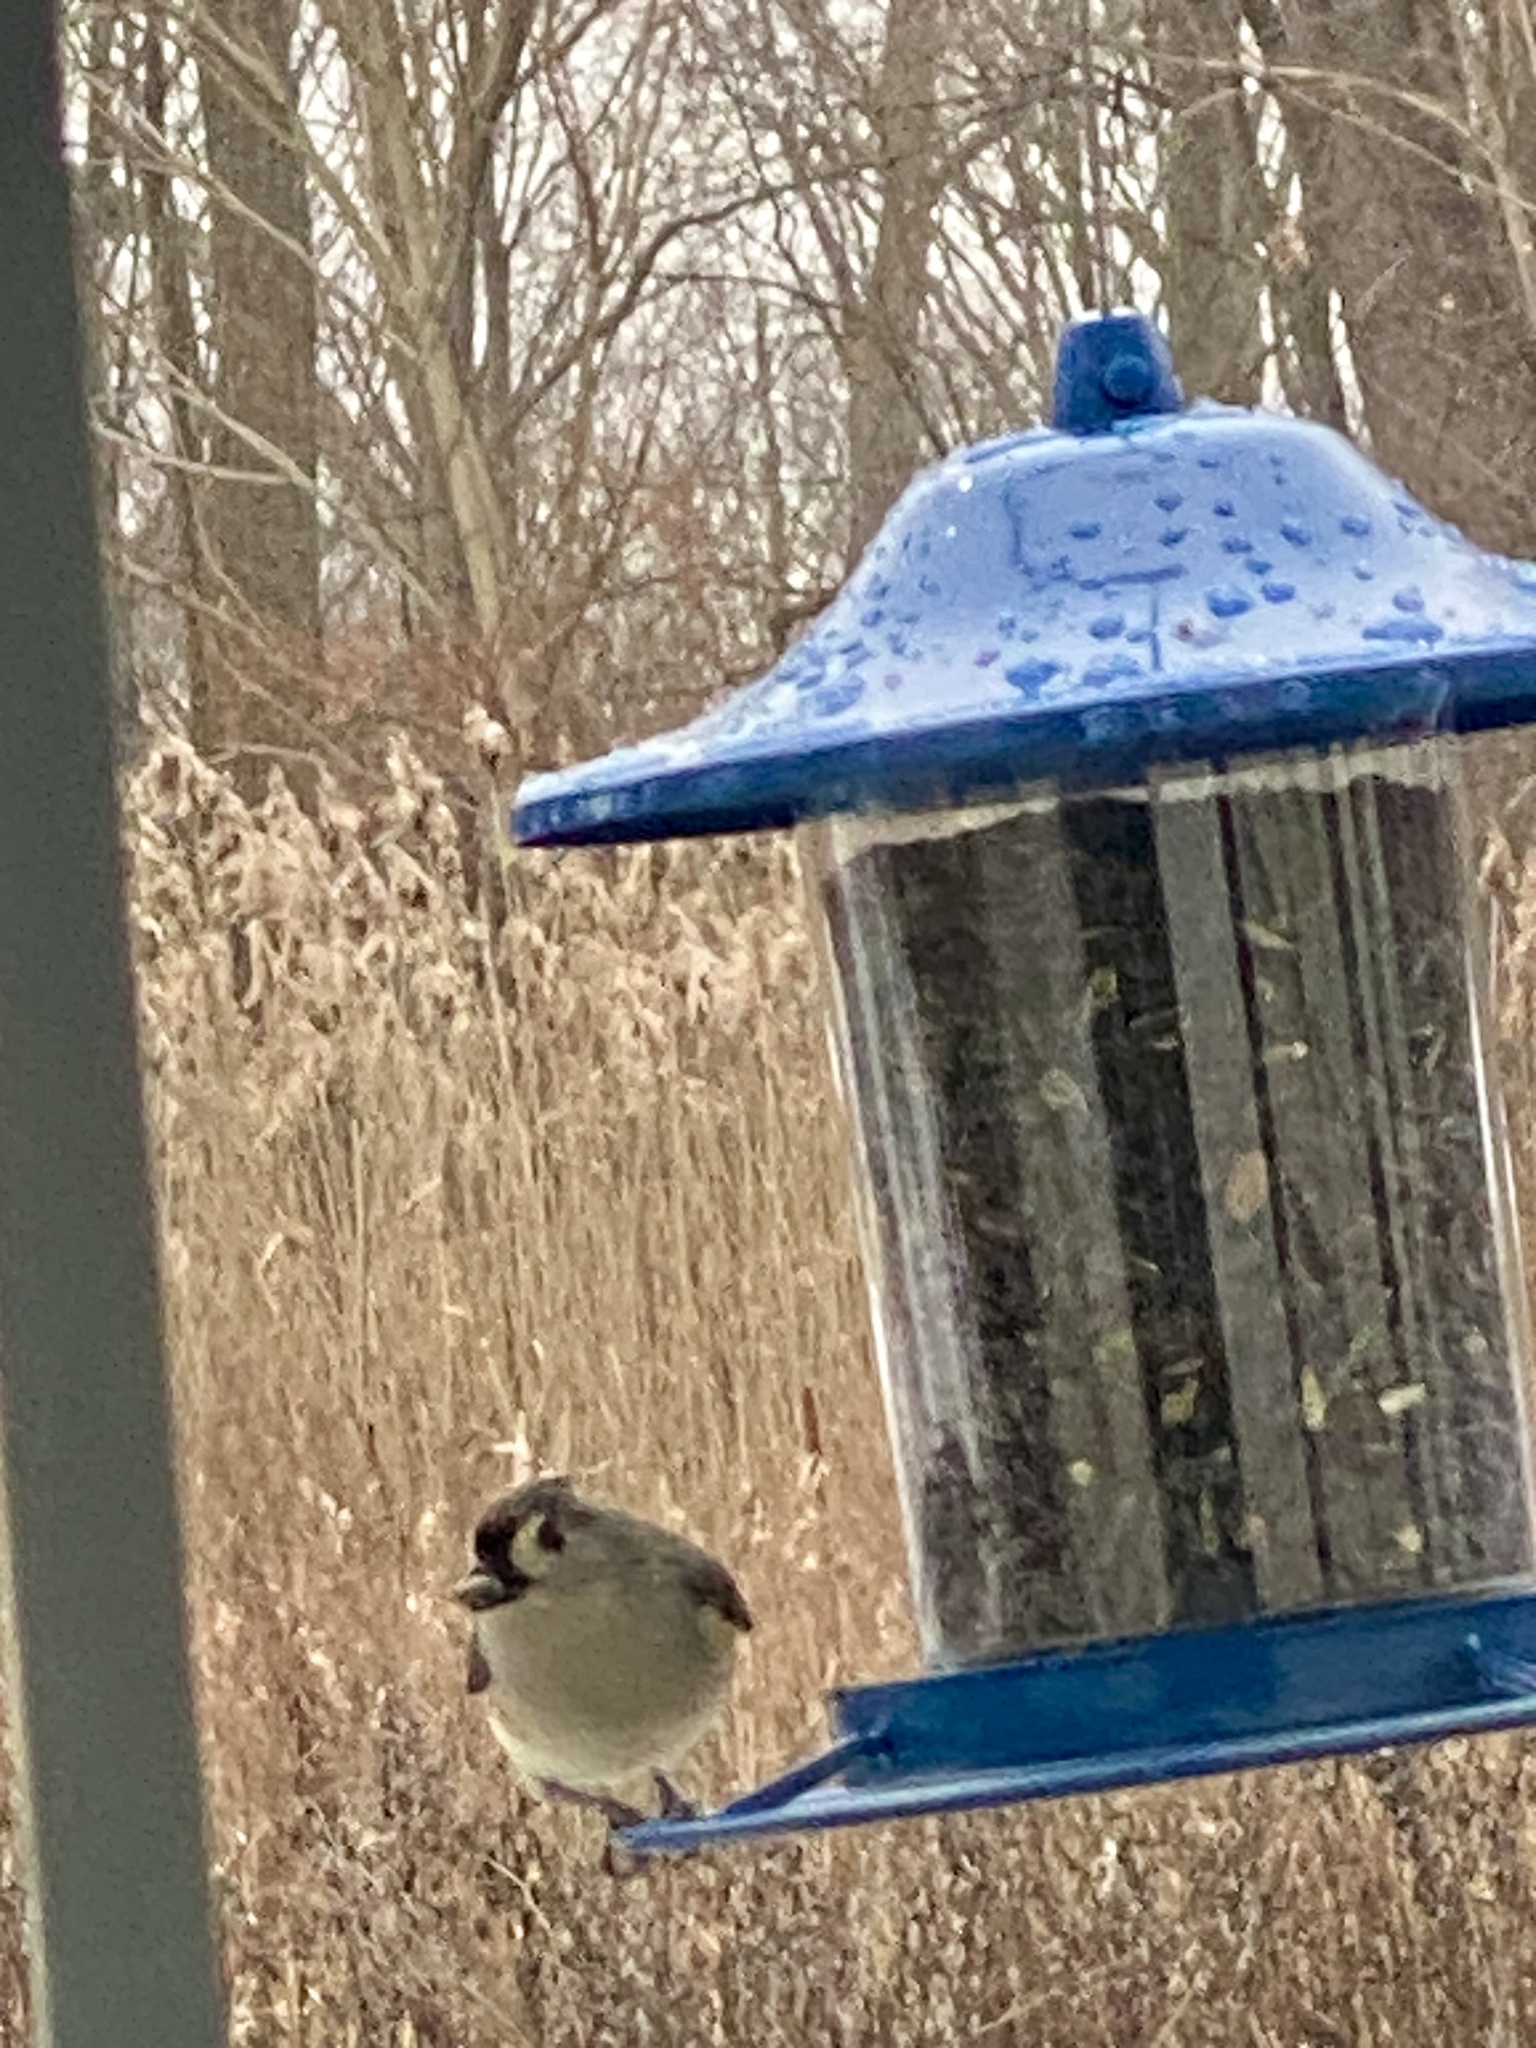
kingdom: Animalia
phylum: Chordata
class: Aves
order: Passeriformes
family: Paridae
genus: Baeolophus
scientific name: Baeolophus bicolor
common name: Tufted titmouse
